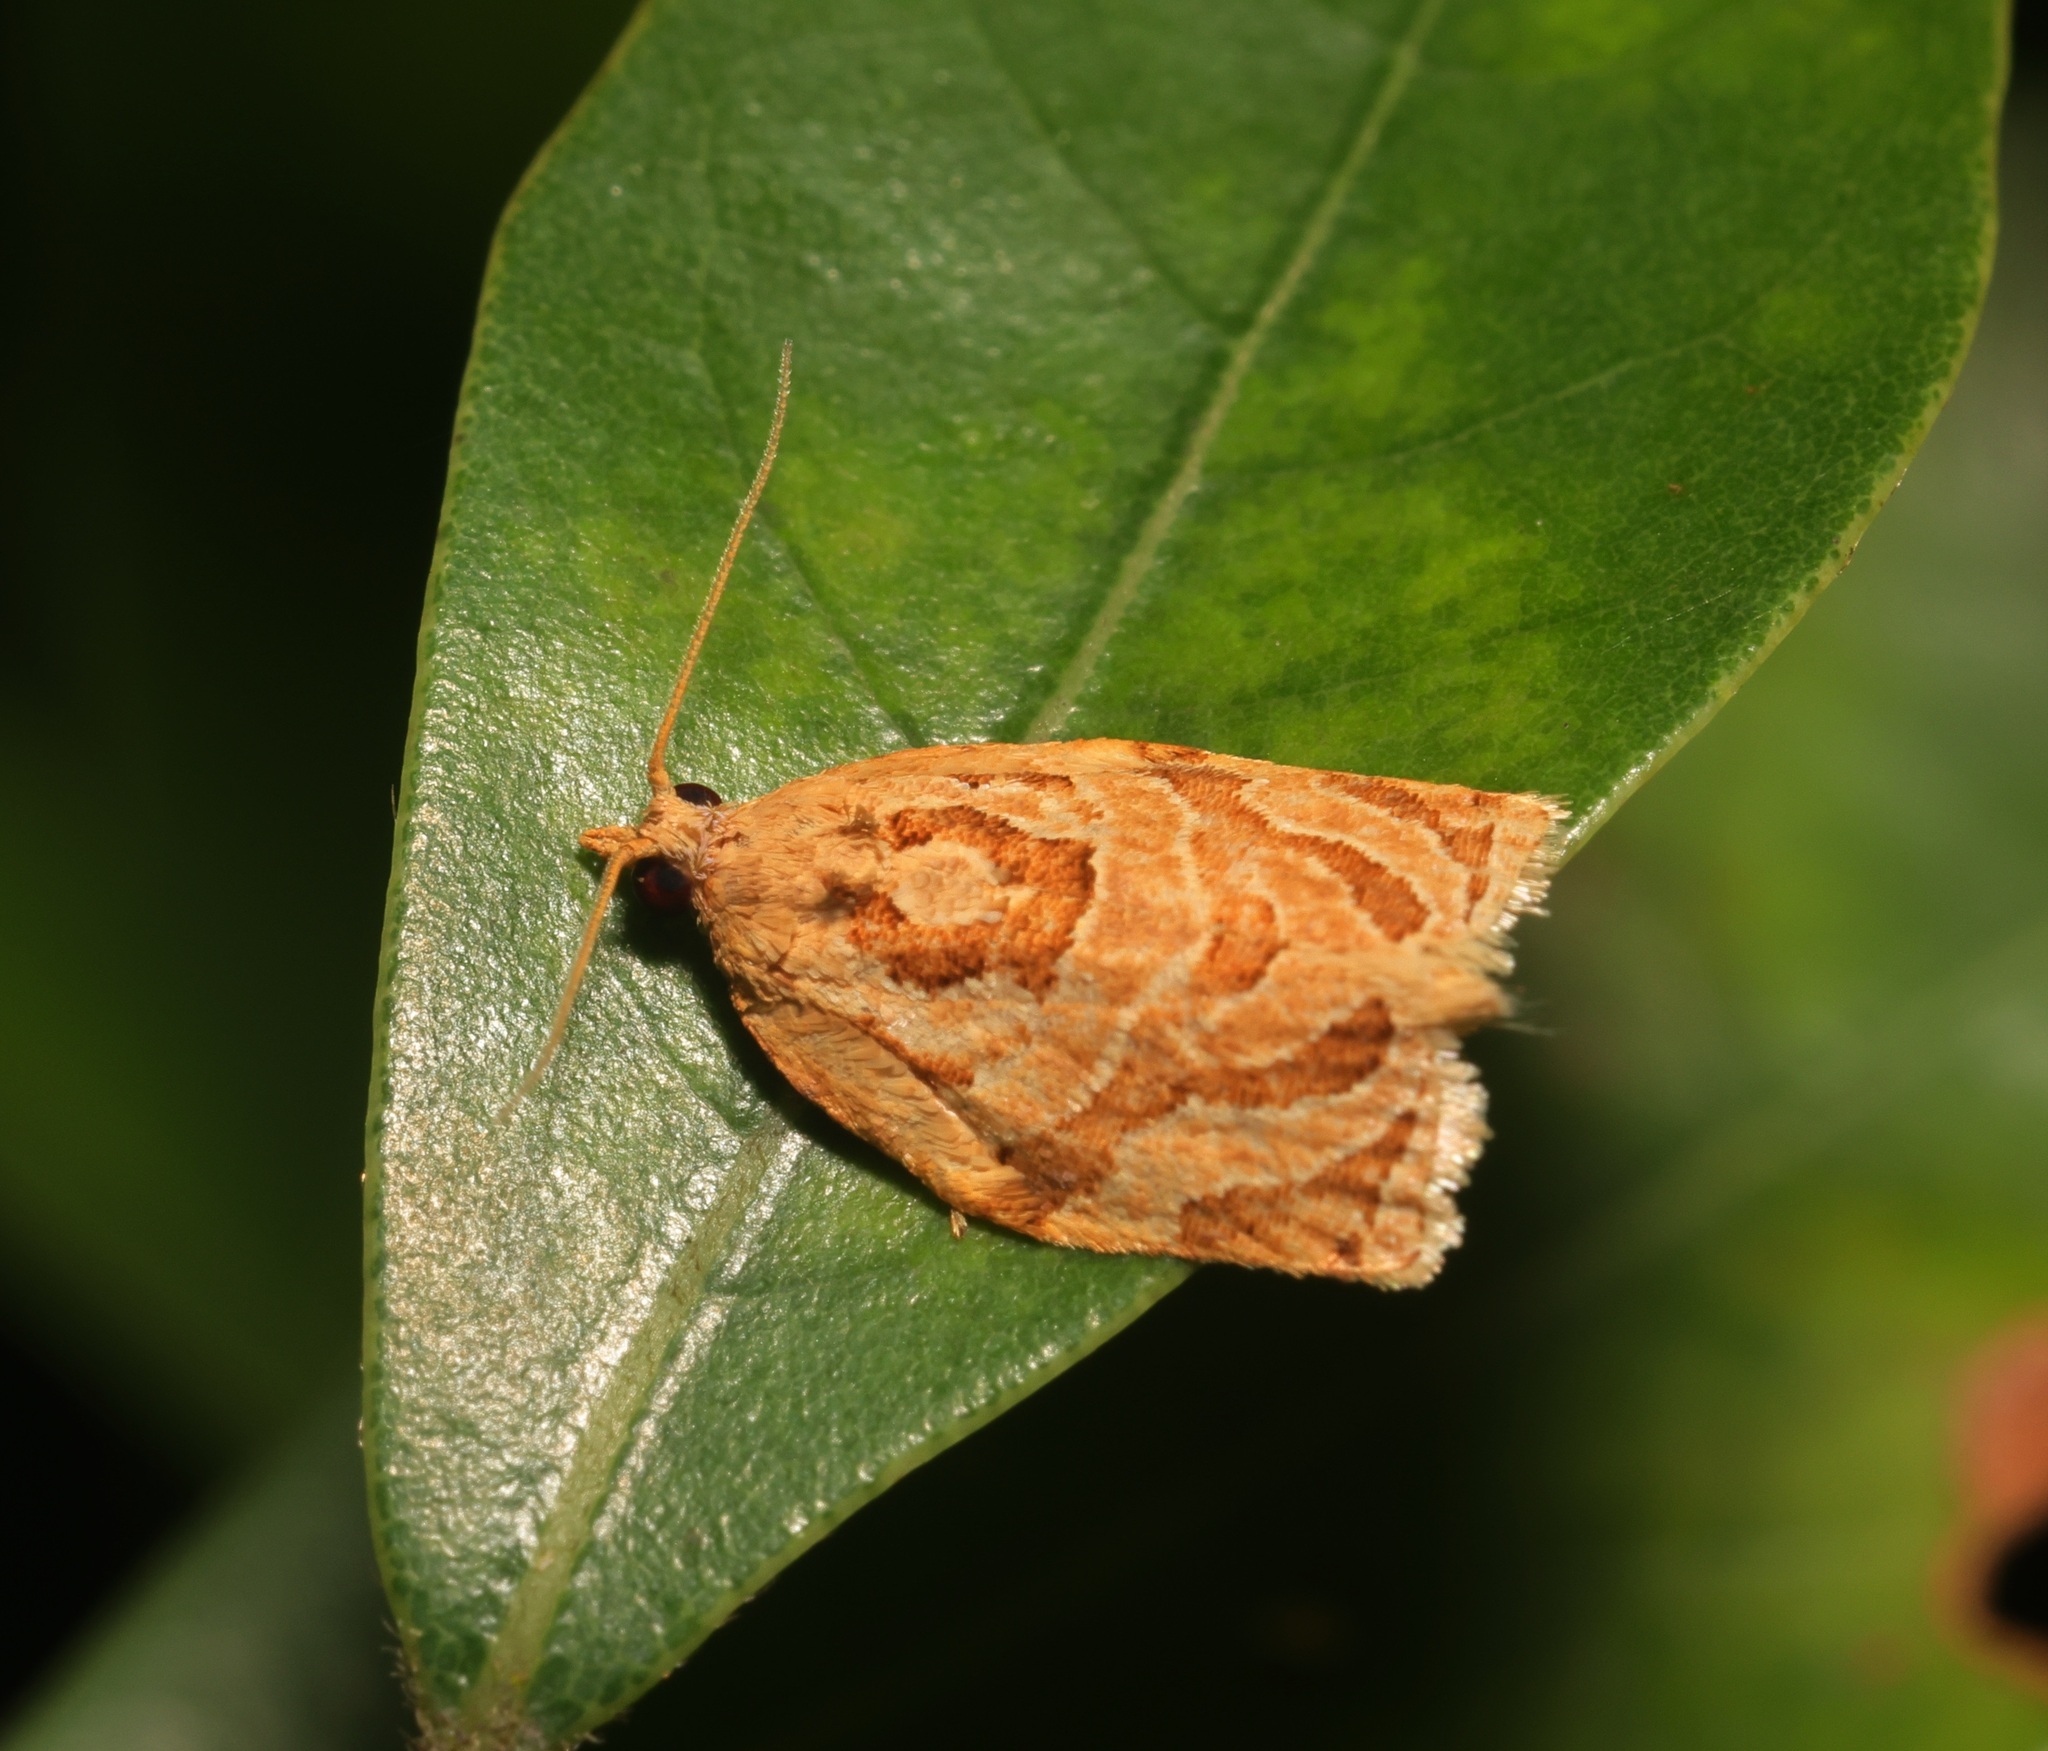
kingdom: Animalia
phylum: Arthropoda
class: Insecta
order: Lepidoptera
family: Tortricidae
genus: Adoxophyes
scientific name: Adoxophyes privatana
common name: Asian orchid tortrix
